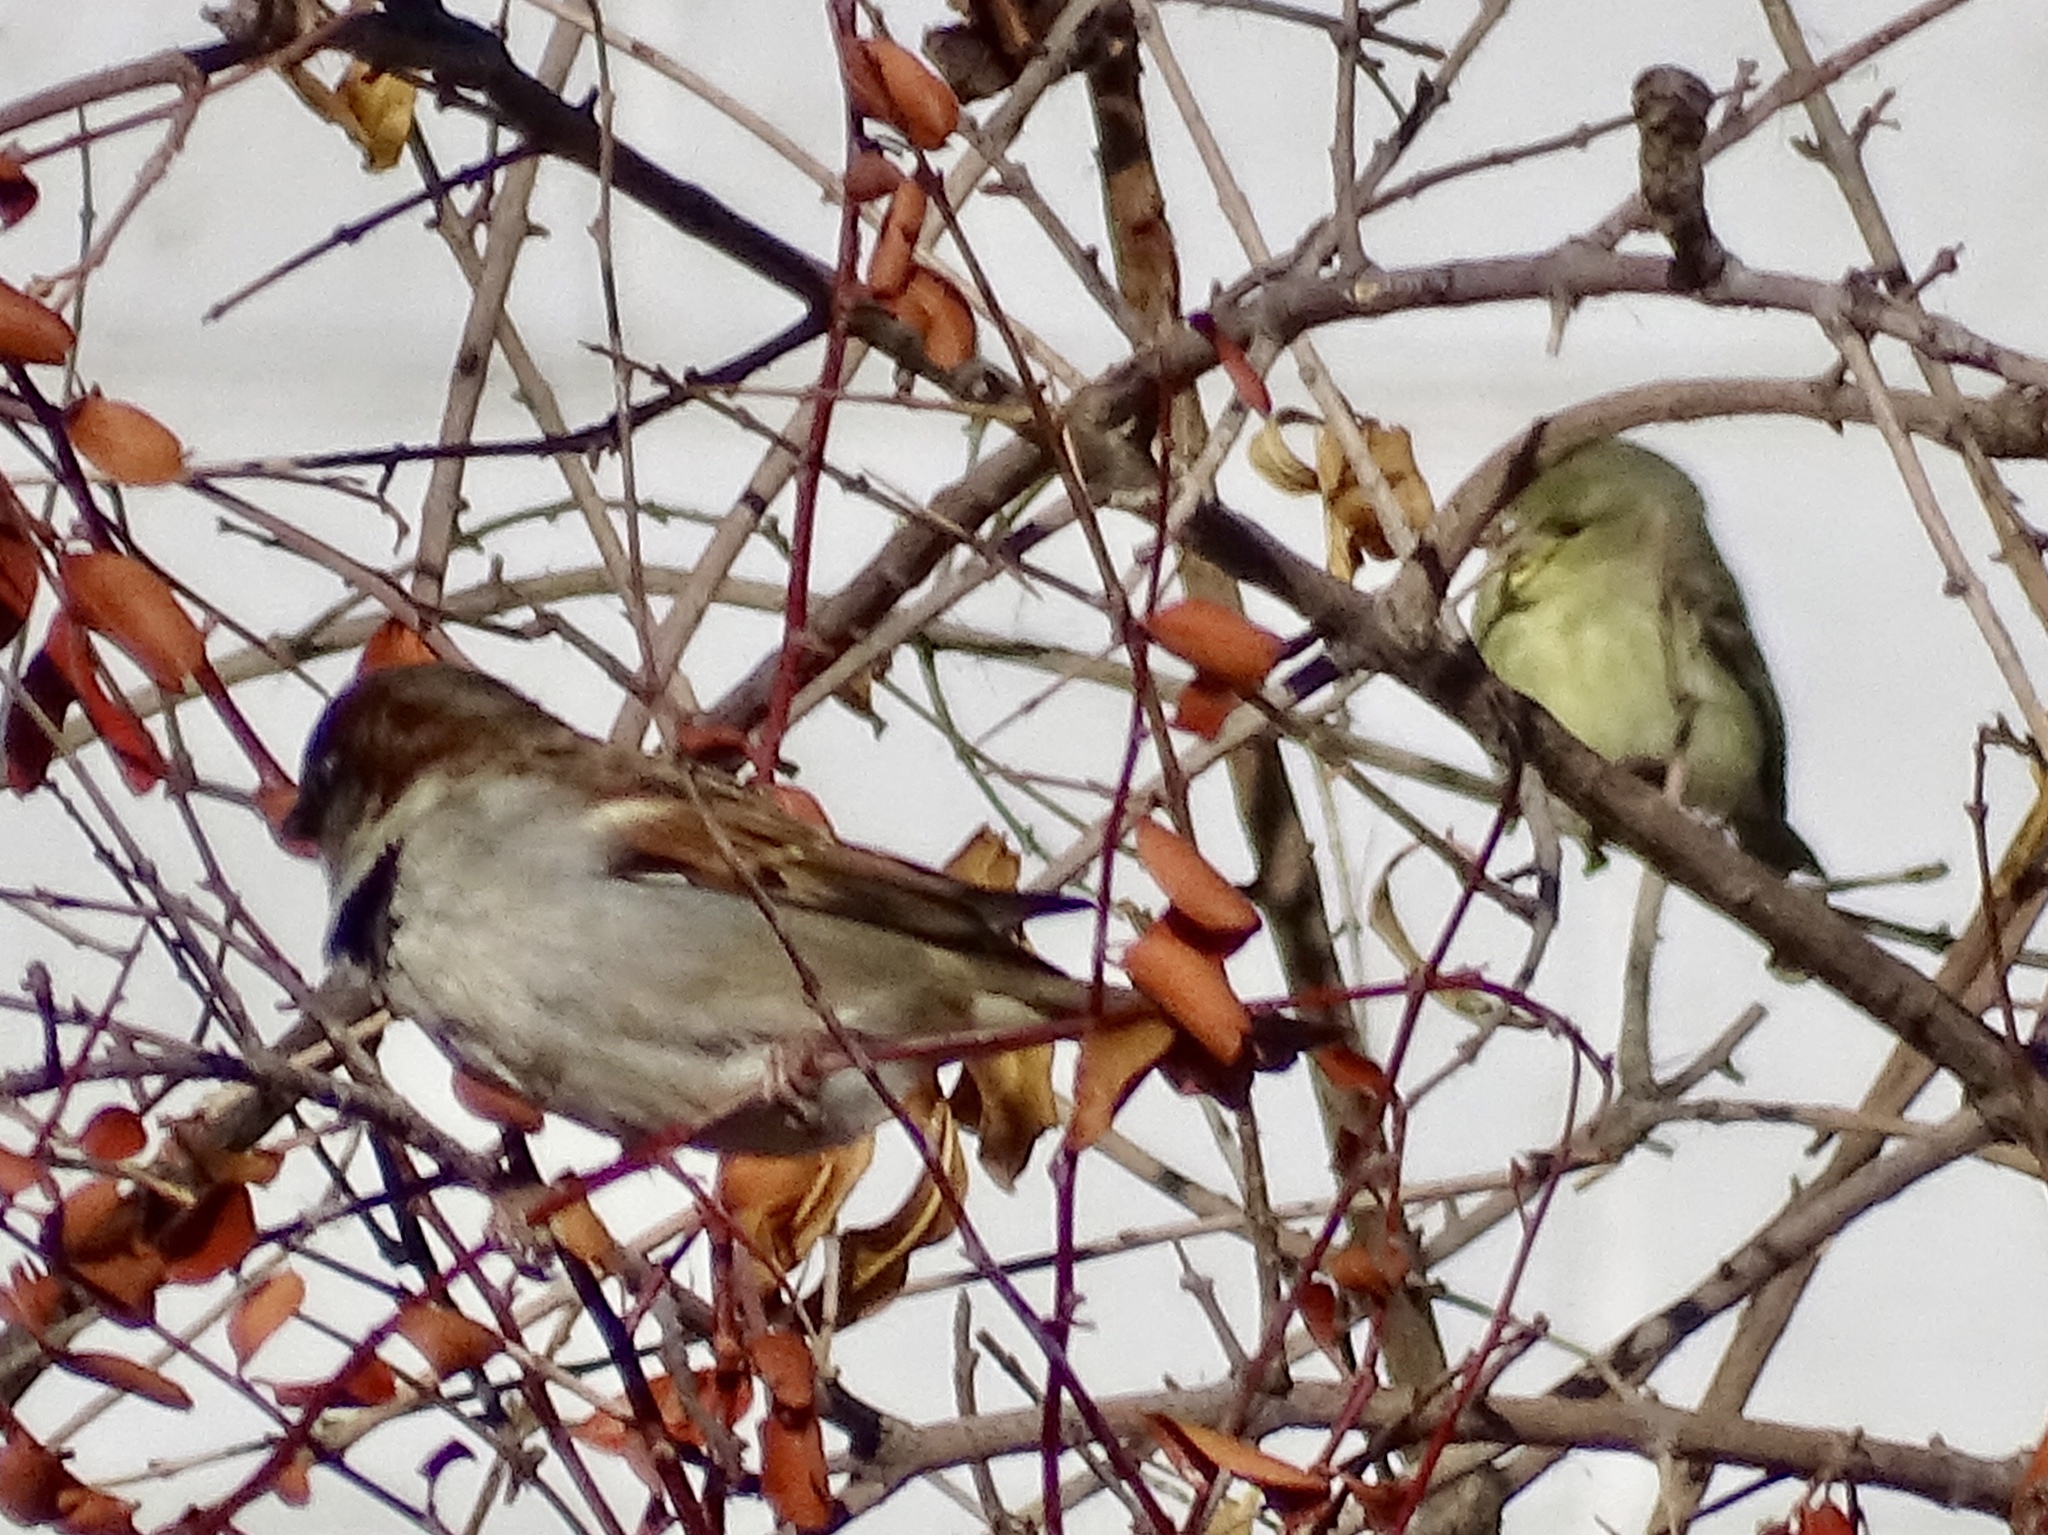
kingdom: Animalia
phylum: Chordata
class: Aves
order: Passeriformes
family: Fringillidae
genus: Spinus
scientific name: Spinus psaltria
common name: Lesser goldfinch
